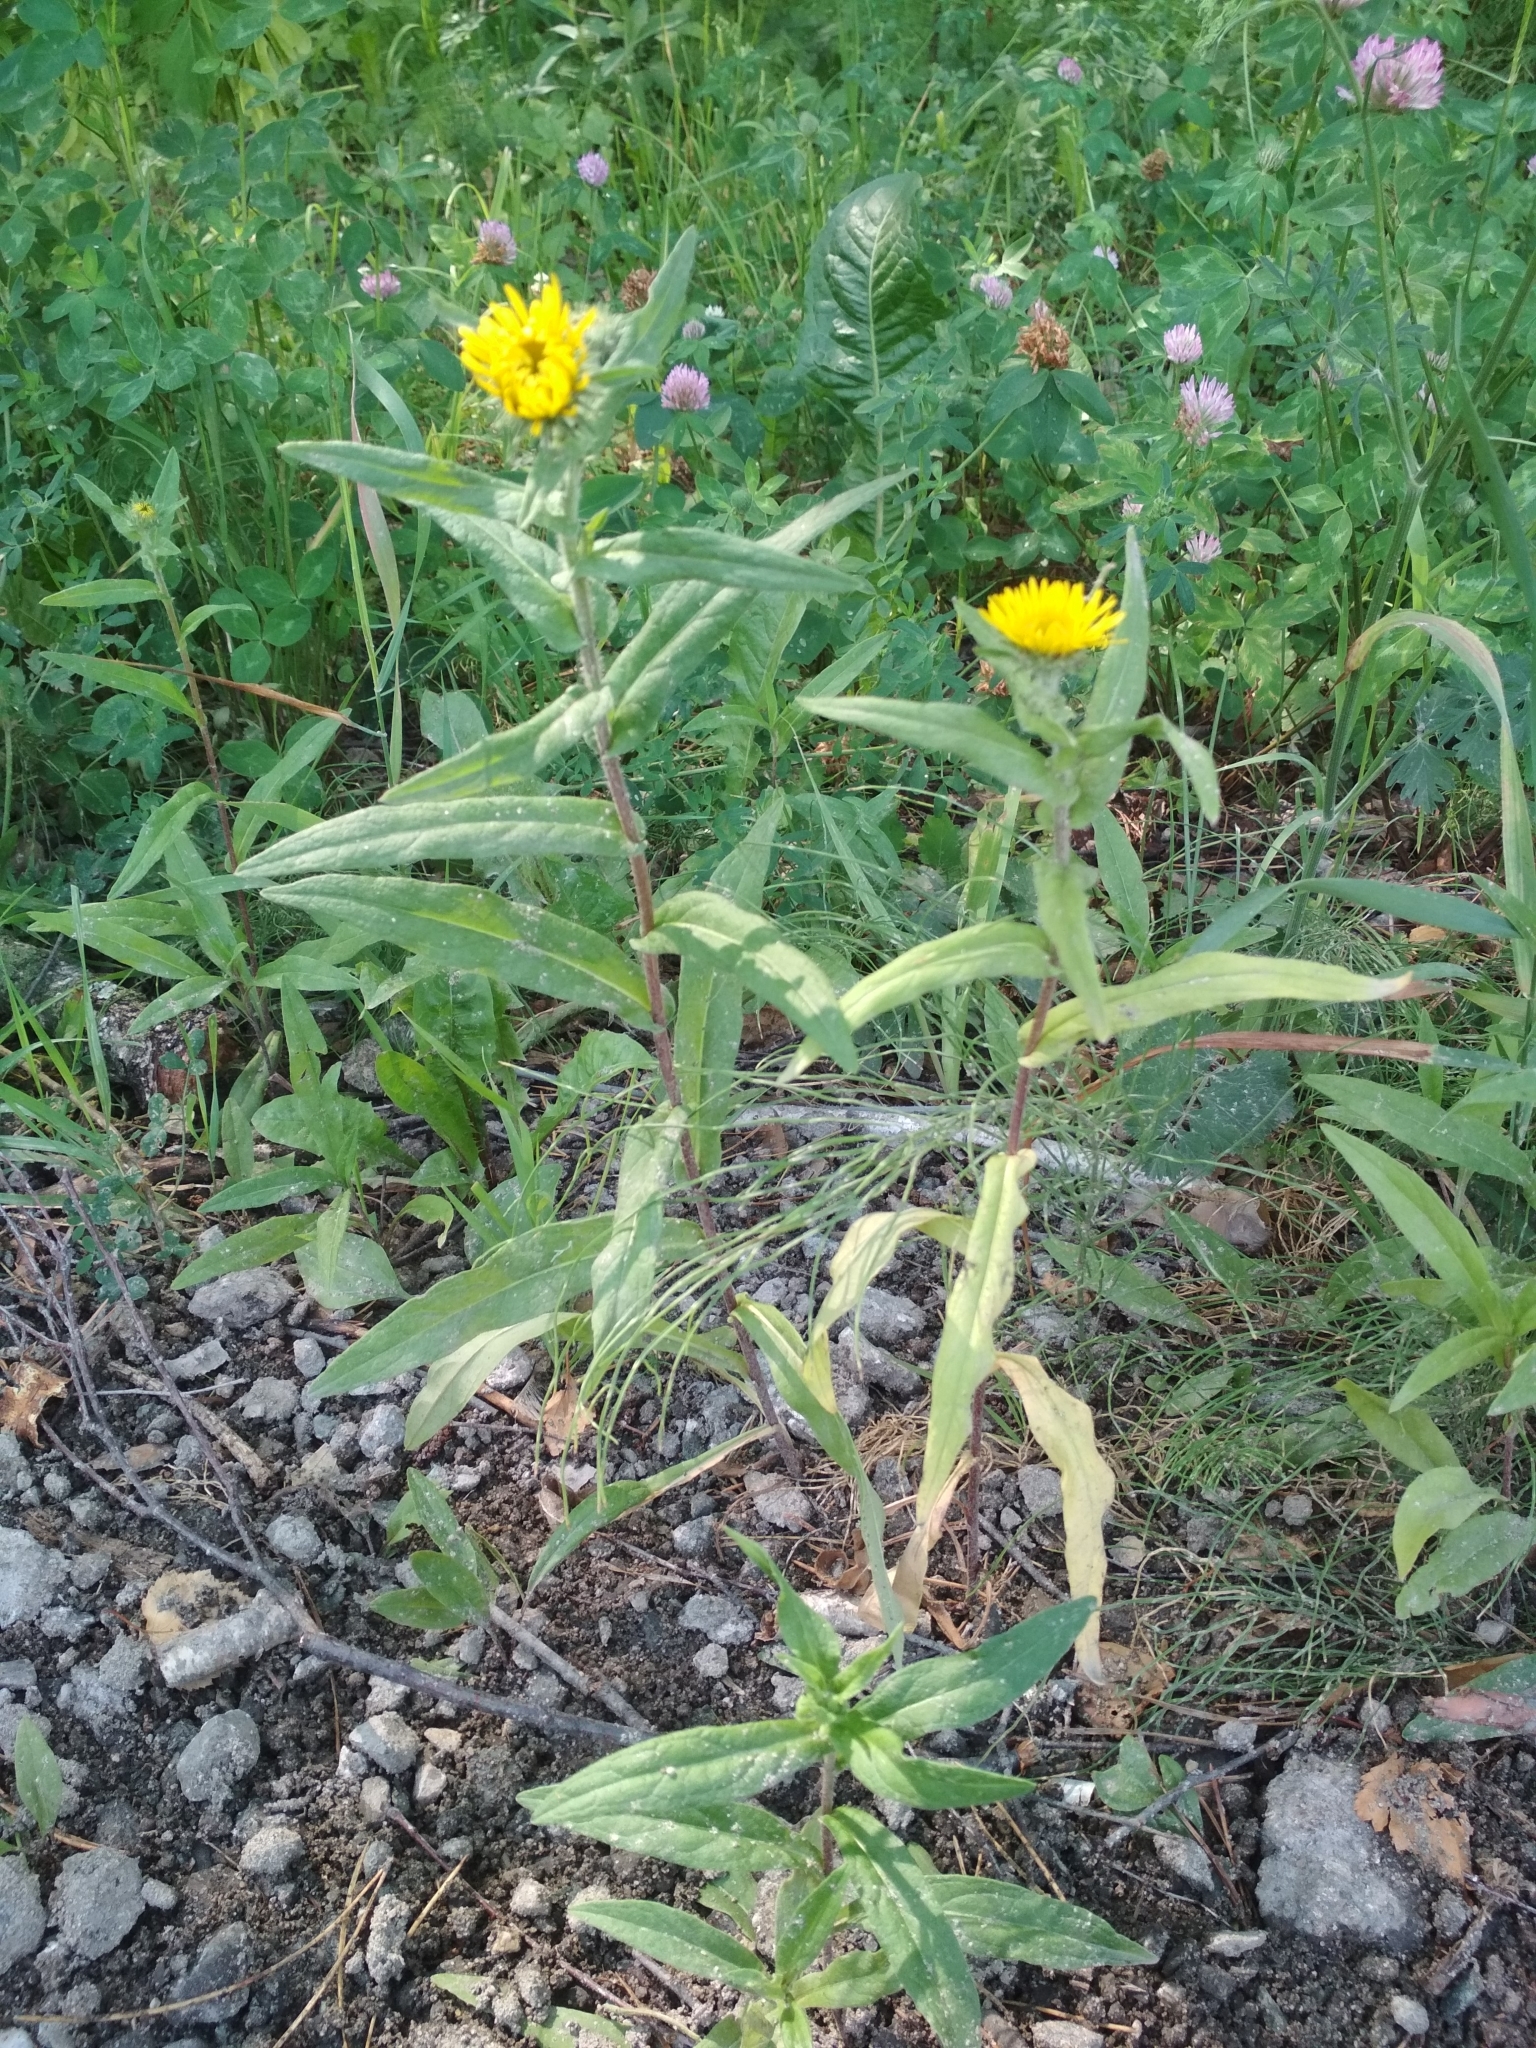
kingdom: Plantae
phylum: Tracheophyta
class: Magnoliopsida
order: Asterales
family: Asteraceae
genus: Pentanema
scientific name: Pentanema britannicum
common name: British elecampane
